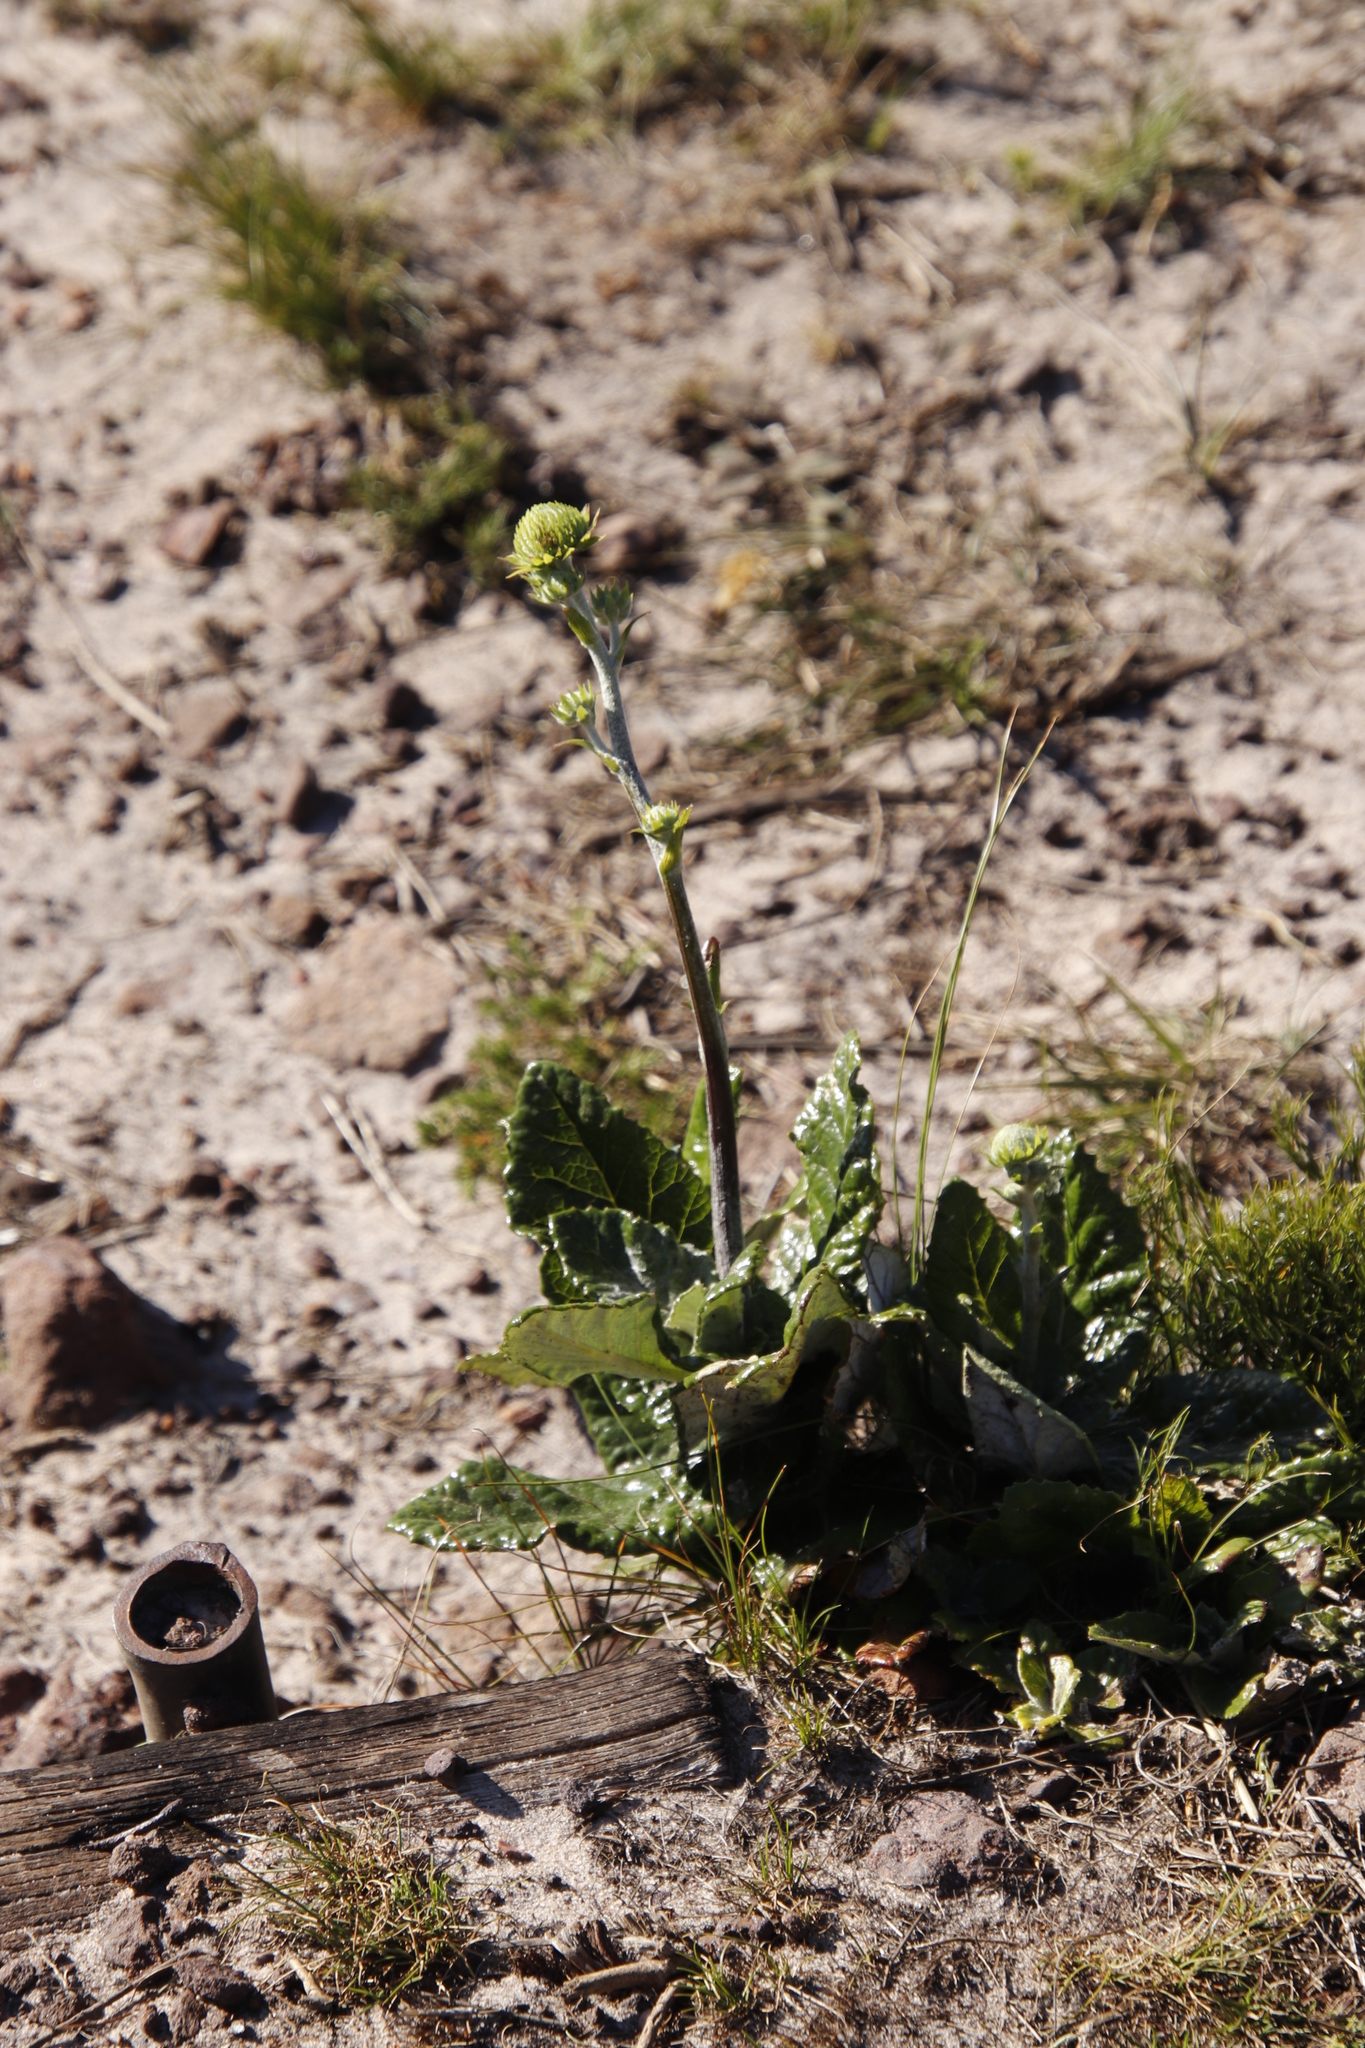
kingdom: Plantae
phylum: Tracheophyta
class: Magnoliopsida
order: Apiales
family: Apiaceae
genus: Hermas
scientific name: Hermas villosa
